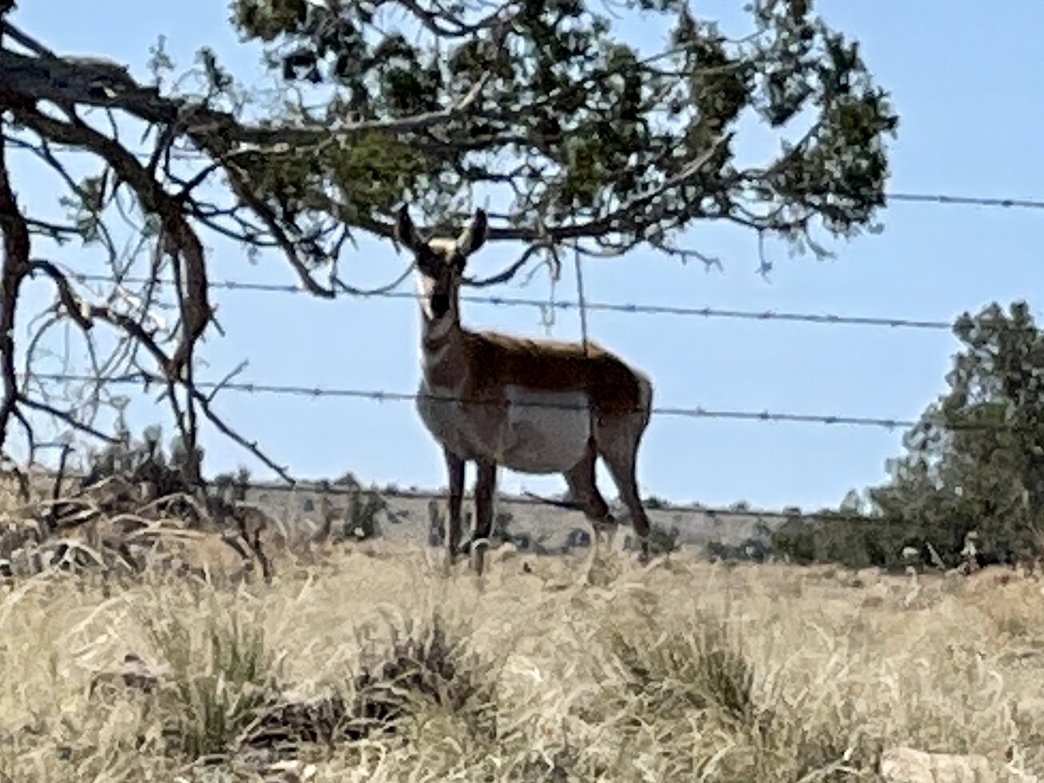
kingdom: Animalia
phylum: Chordata
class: Mammalia
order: Artiodactyla
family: Antilocapridae
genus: Antilocapra
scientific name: Antilocapra americana
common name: Pronghorn
